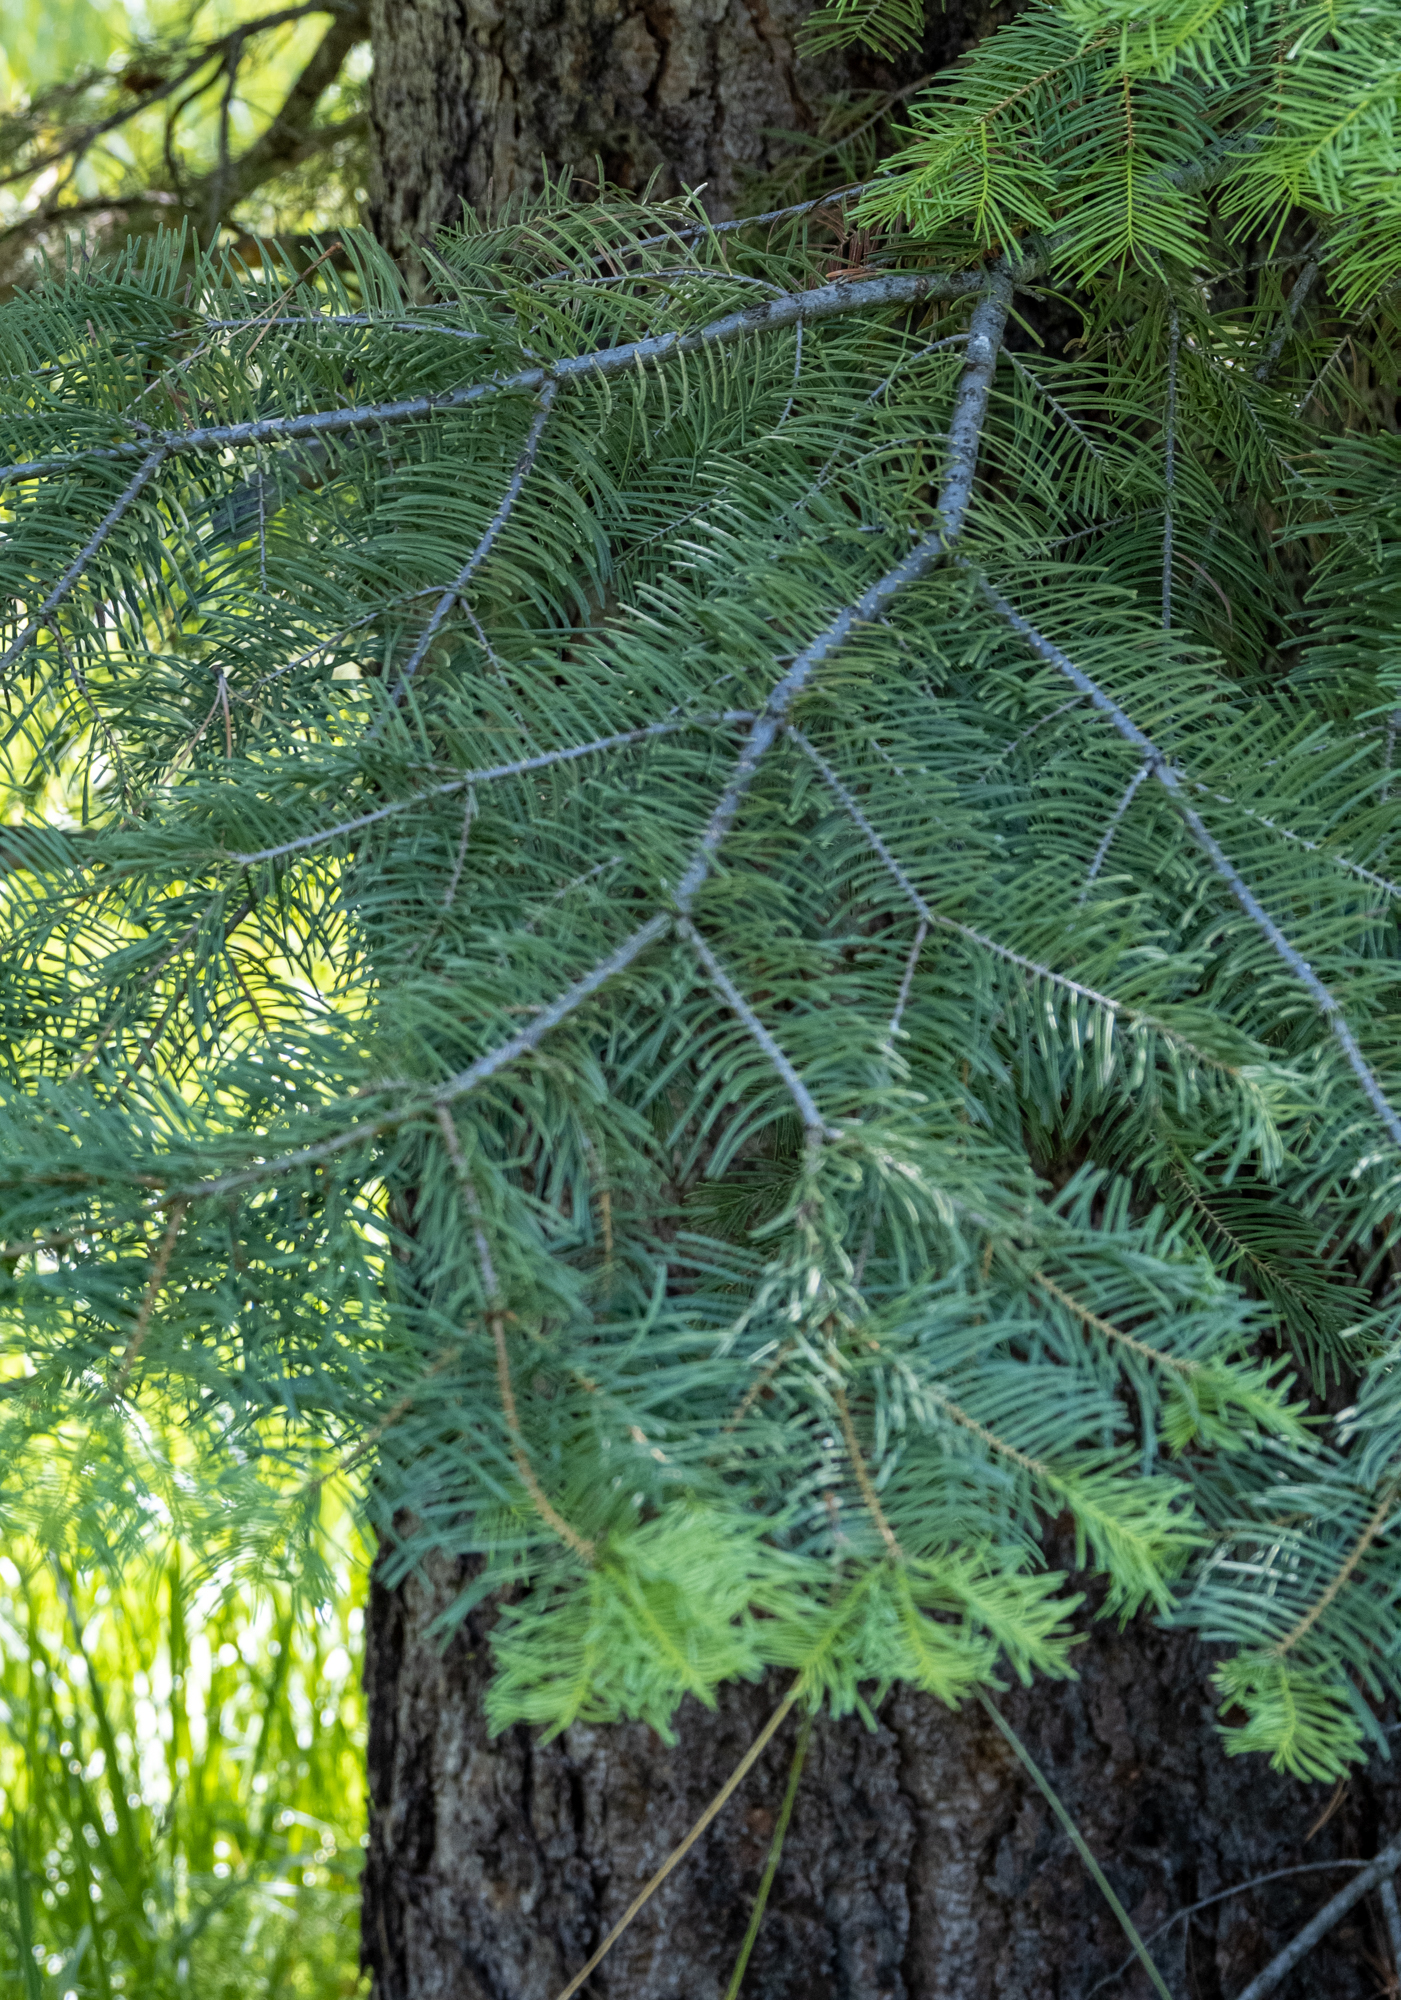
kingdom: Plantae
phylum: Tracheophyta
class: Pinopsida
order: Pinales
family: Pinaceae
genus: Abies
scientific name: Abies concolor
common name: Colorado fir
